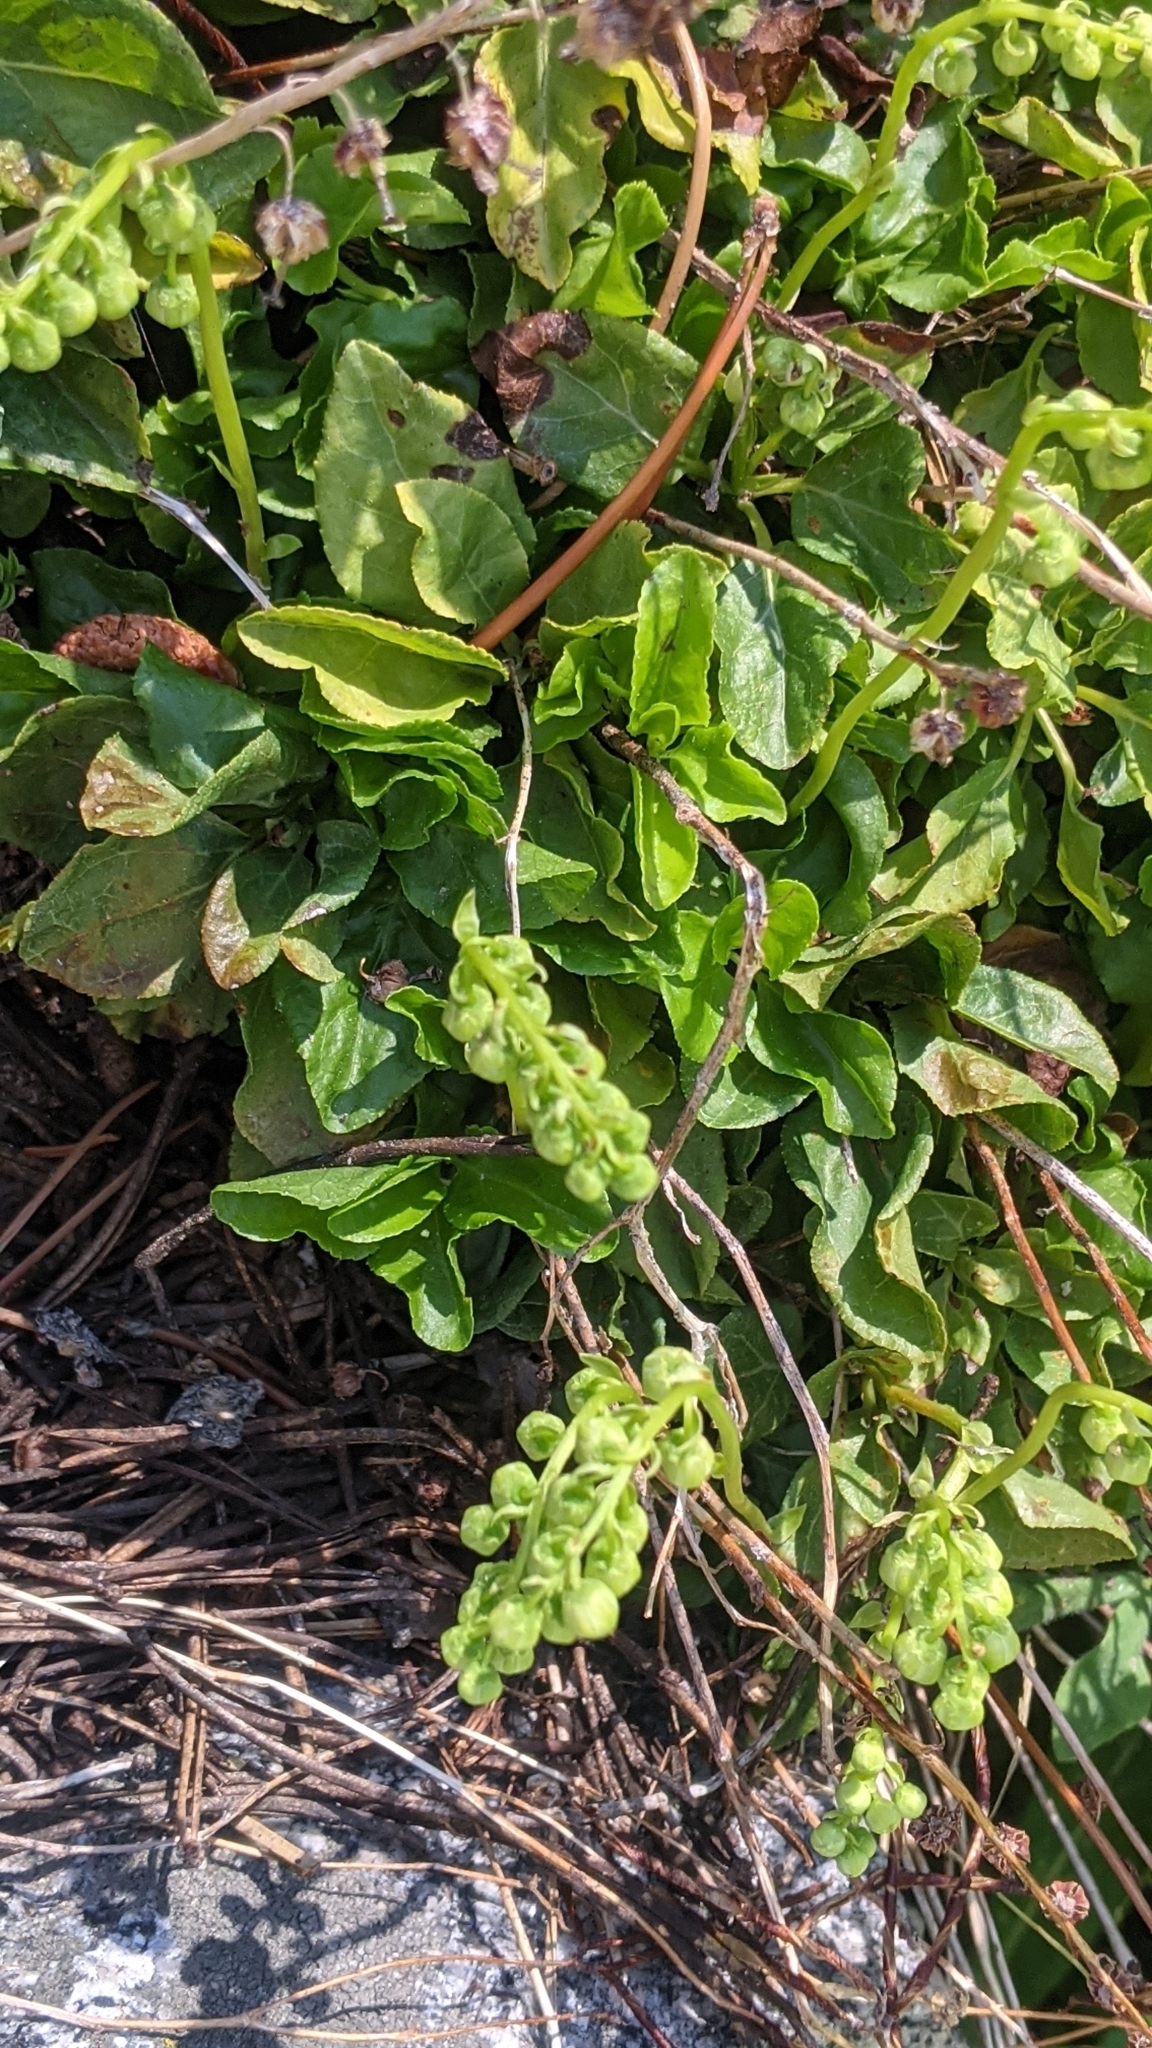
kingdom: Plantae
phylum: Tracheophyta
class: Magnoliopsida
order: Ericales
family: Ericaceae
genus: Orthilia
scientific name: Orthilia secunda
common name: One-sided orthilia
